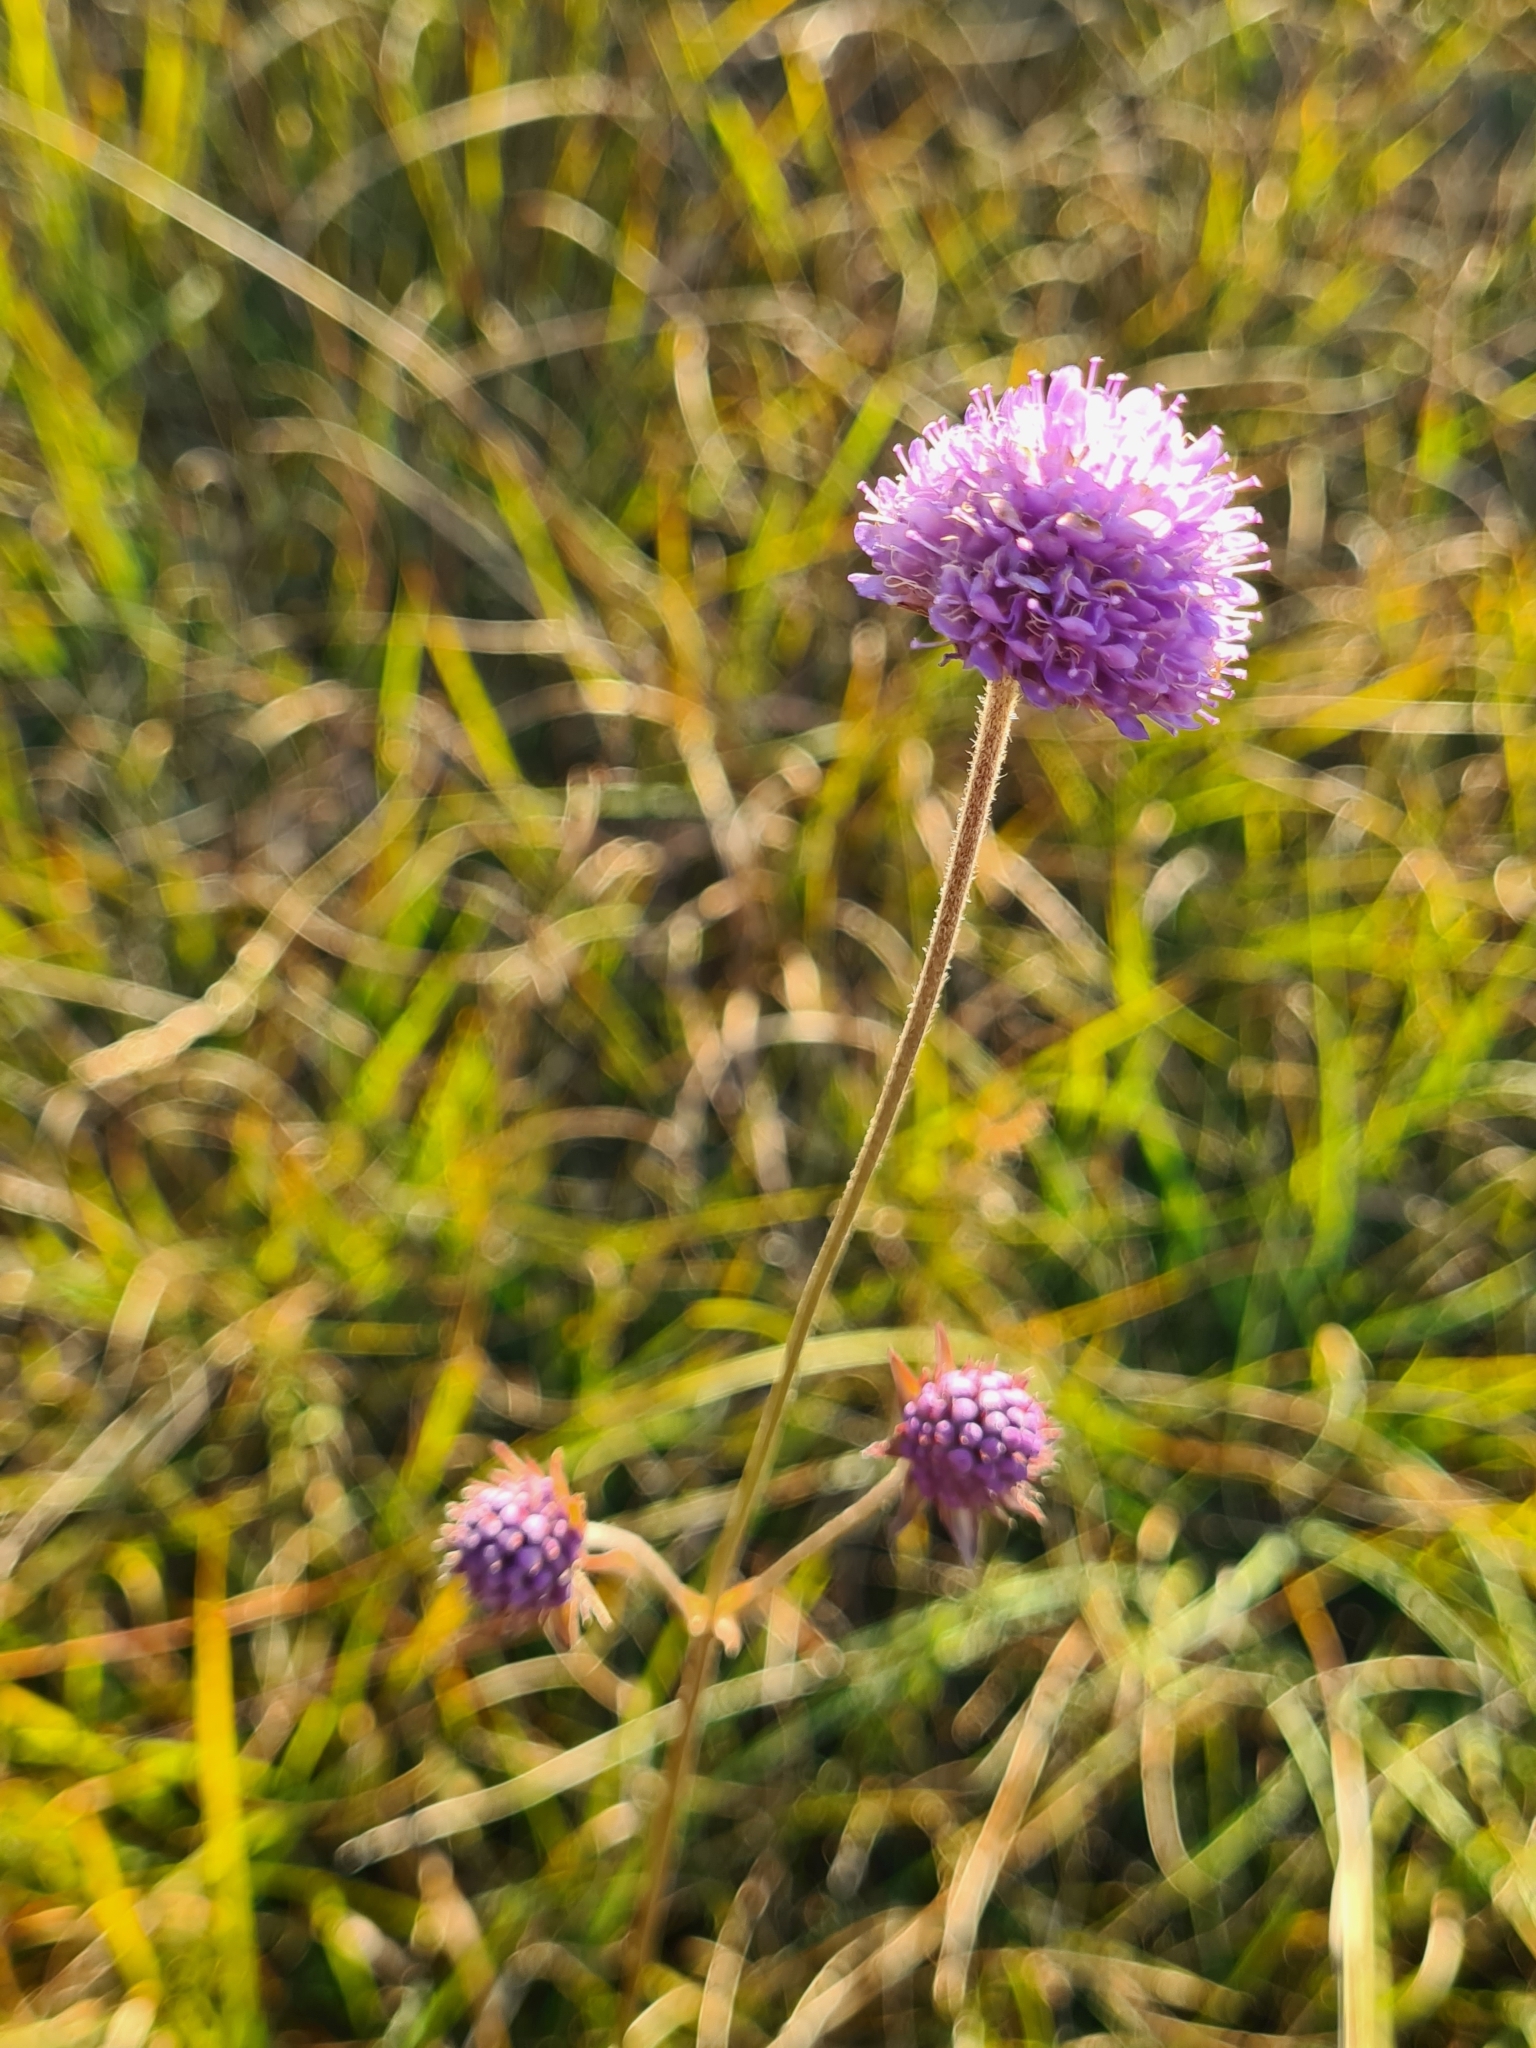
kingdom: Plantae
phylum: Tracheophyta
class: Magnoliopsida
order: Dipsacales
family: Caprifoliaceae
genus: Succisa
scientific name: Succisa pratensis
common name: Devil's-bit
